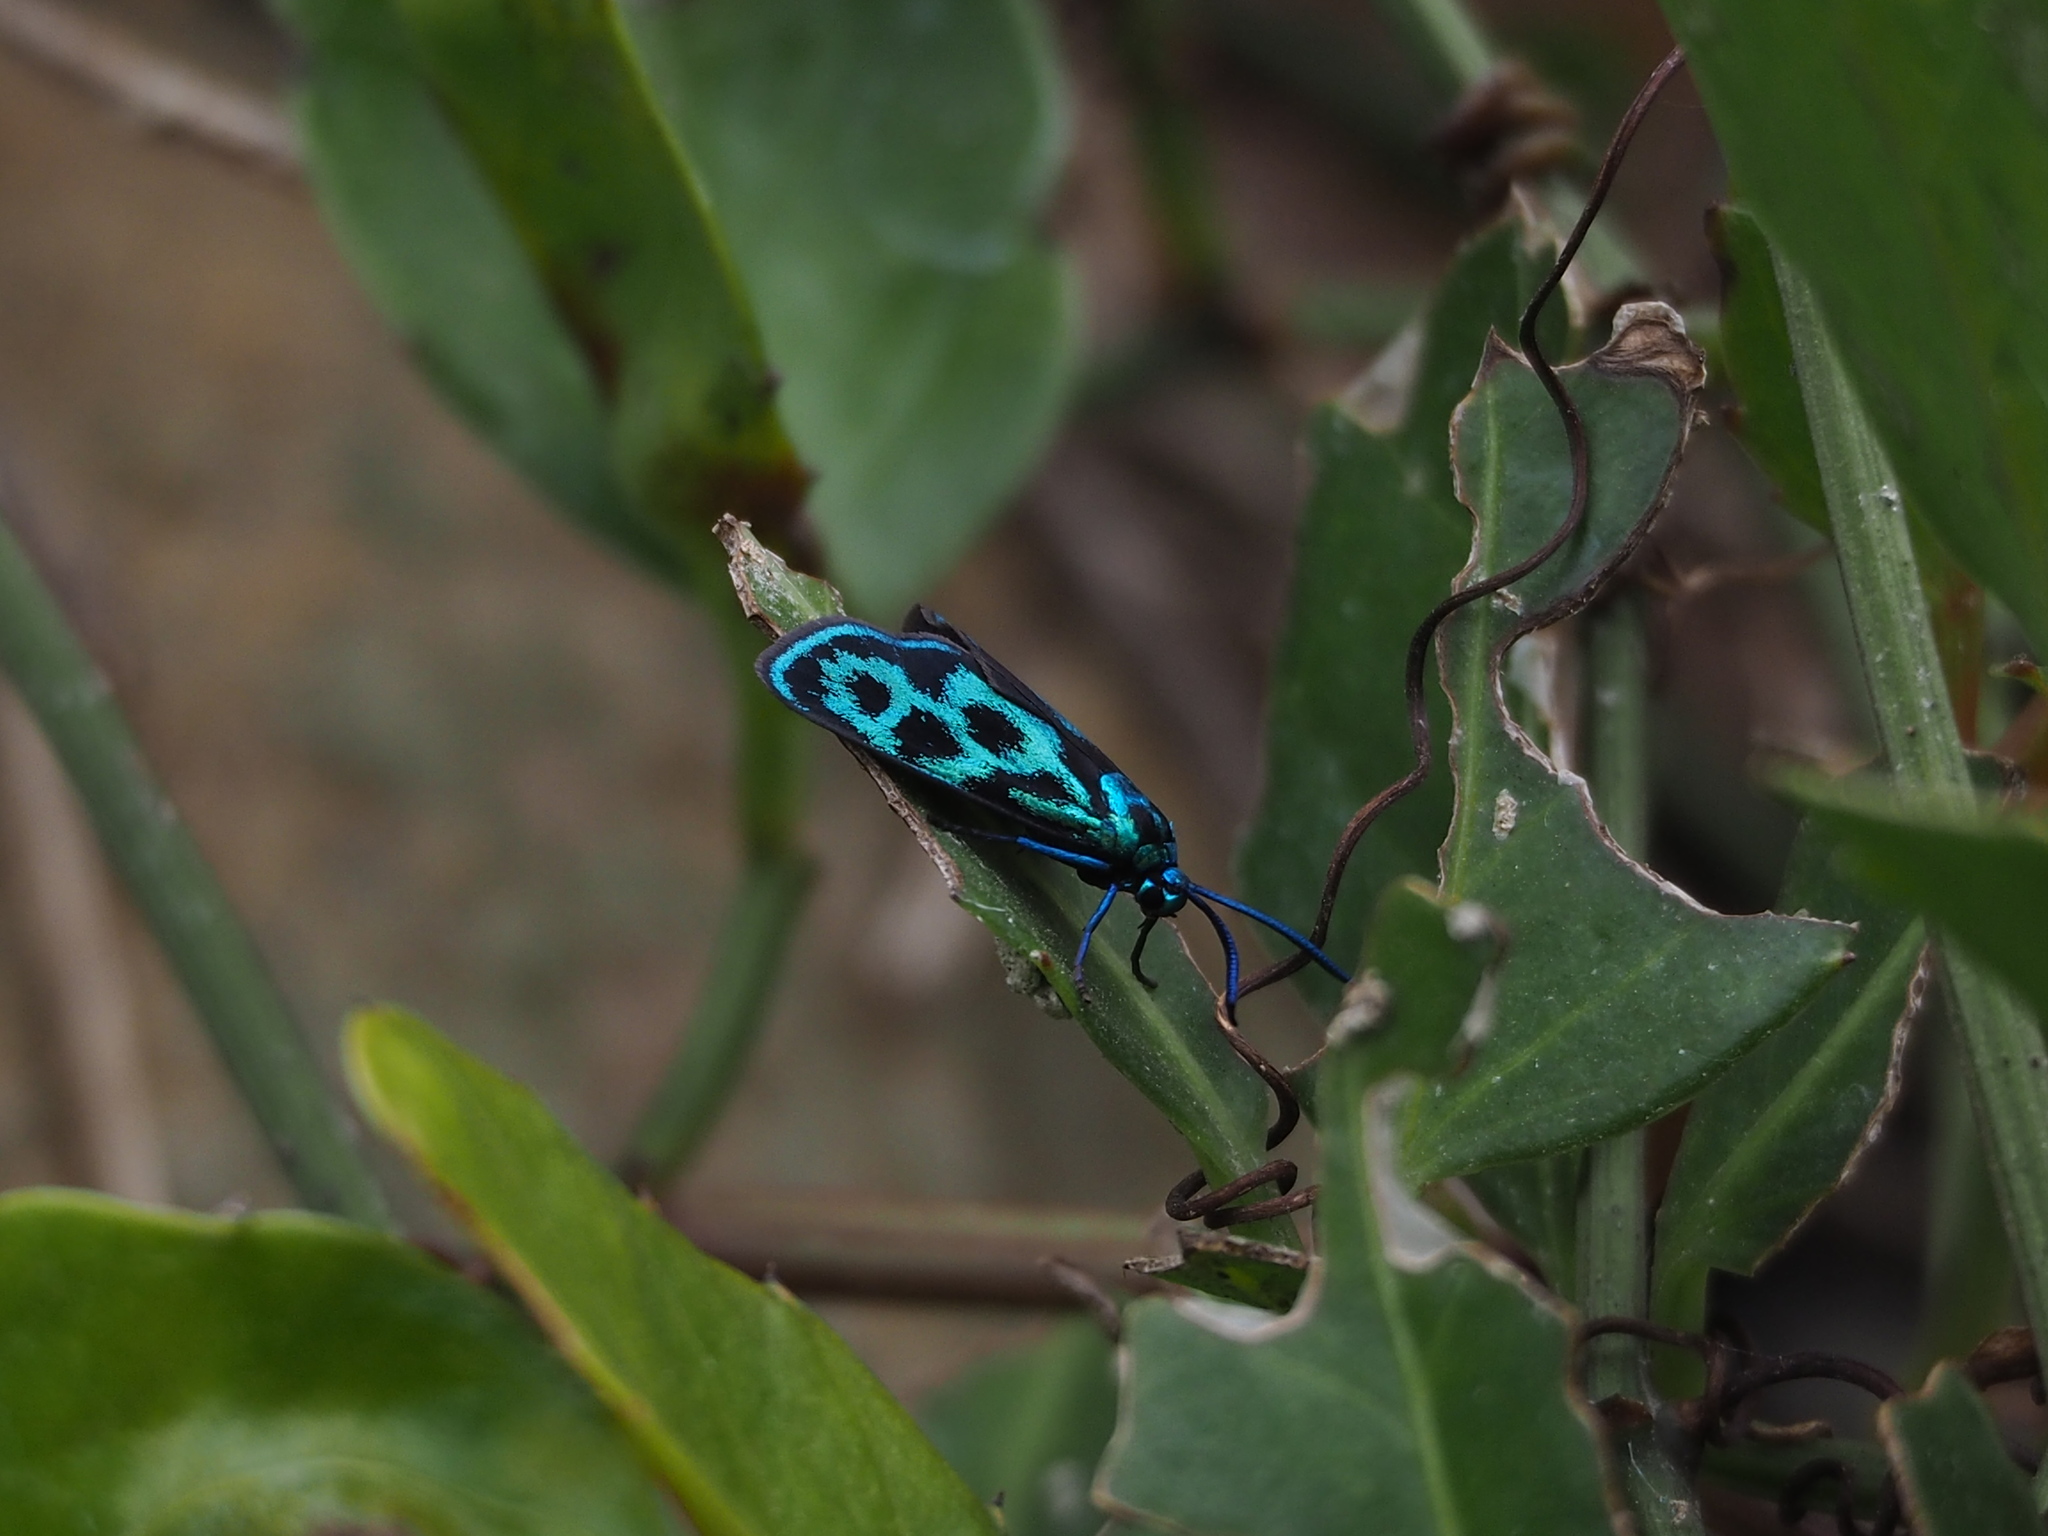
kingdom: Animalia
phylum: Arthropoda
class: Insecta
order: Lepidoptera
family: Zygaenidae
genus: Clelea
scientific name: Clelea simplicior
